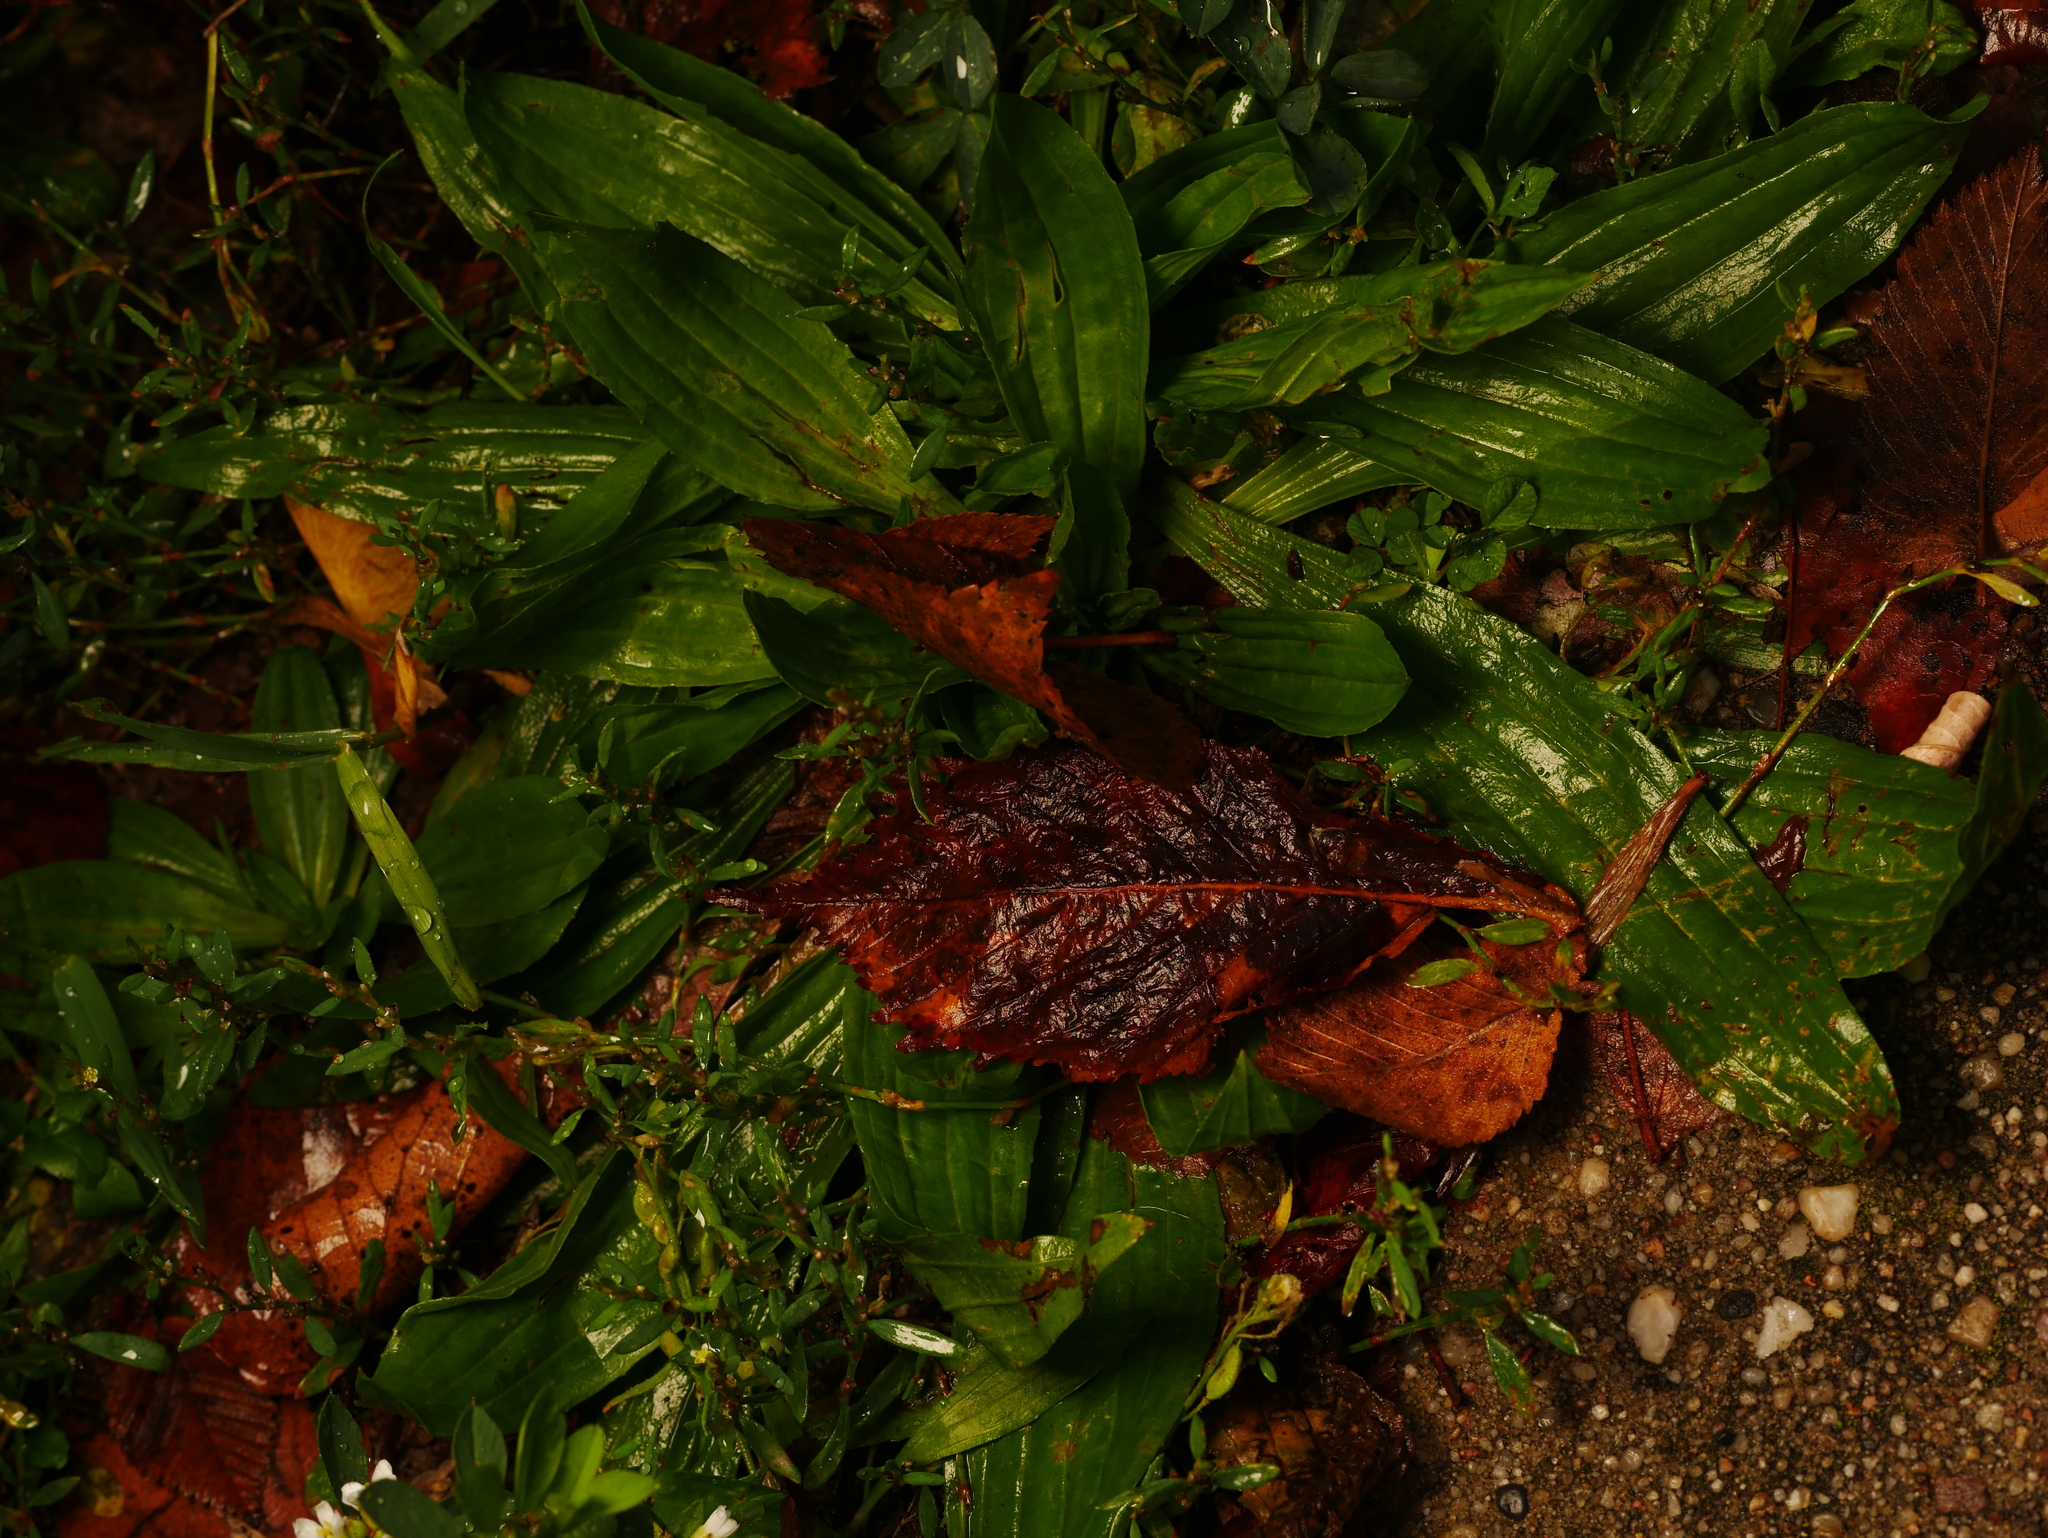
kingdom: Plantae
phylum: Tracheophyta
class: Magnoliopsida
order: Lamiales
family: Plantaginaceae
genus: Plantago
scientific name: Plantago lanceolata
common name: Ribwort plantain
